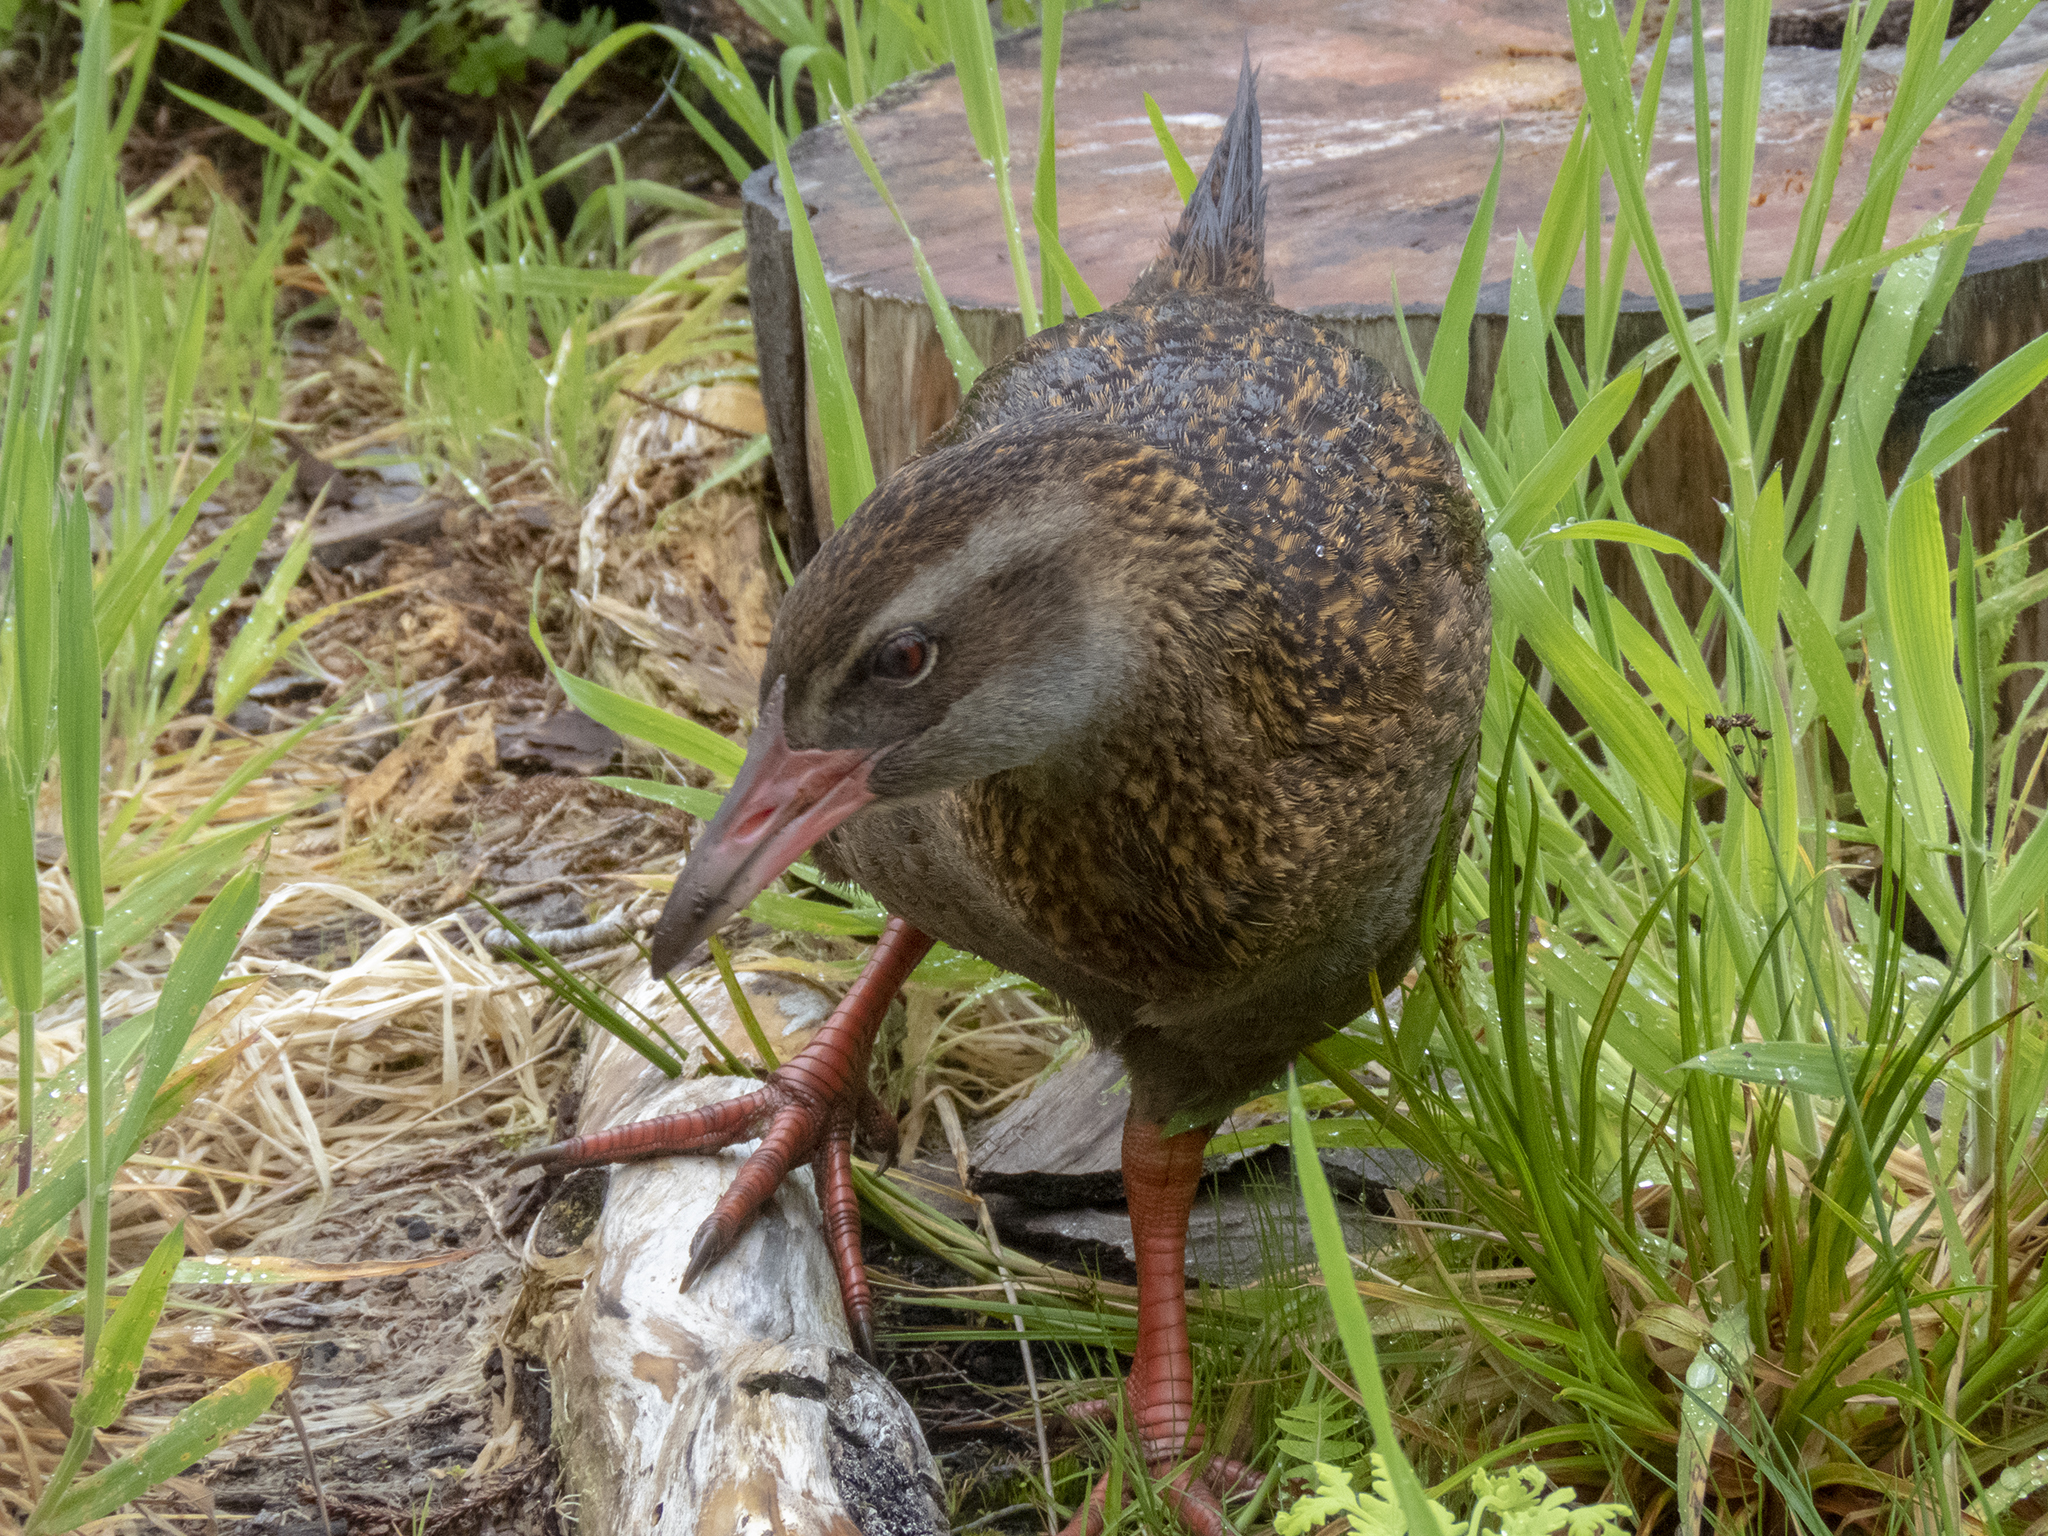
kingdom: Animalia
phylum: Chordata
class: Aves
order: Gruiformes
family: Rallidae
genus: Gallirallus
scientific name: Gallirallus australis
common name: Weka
